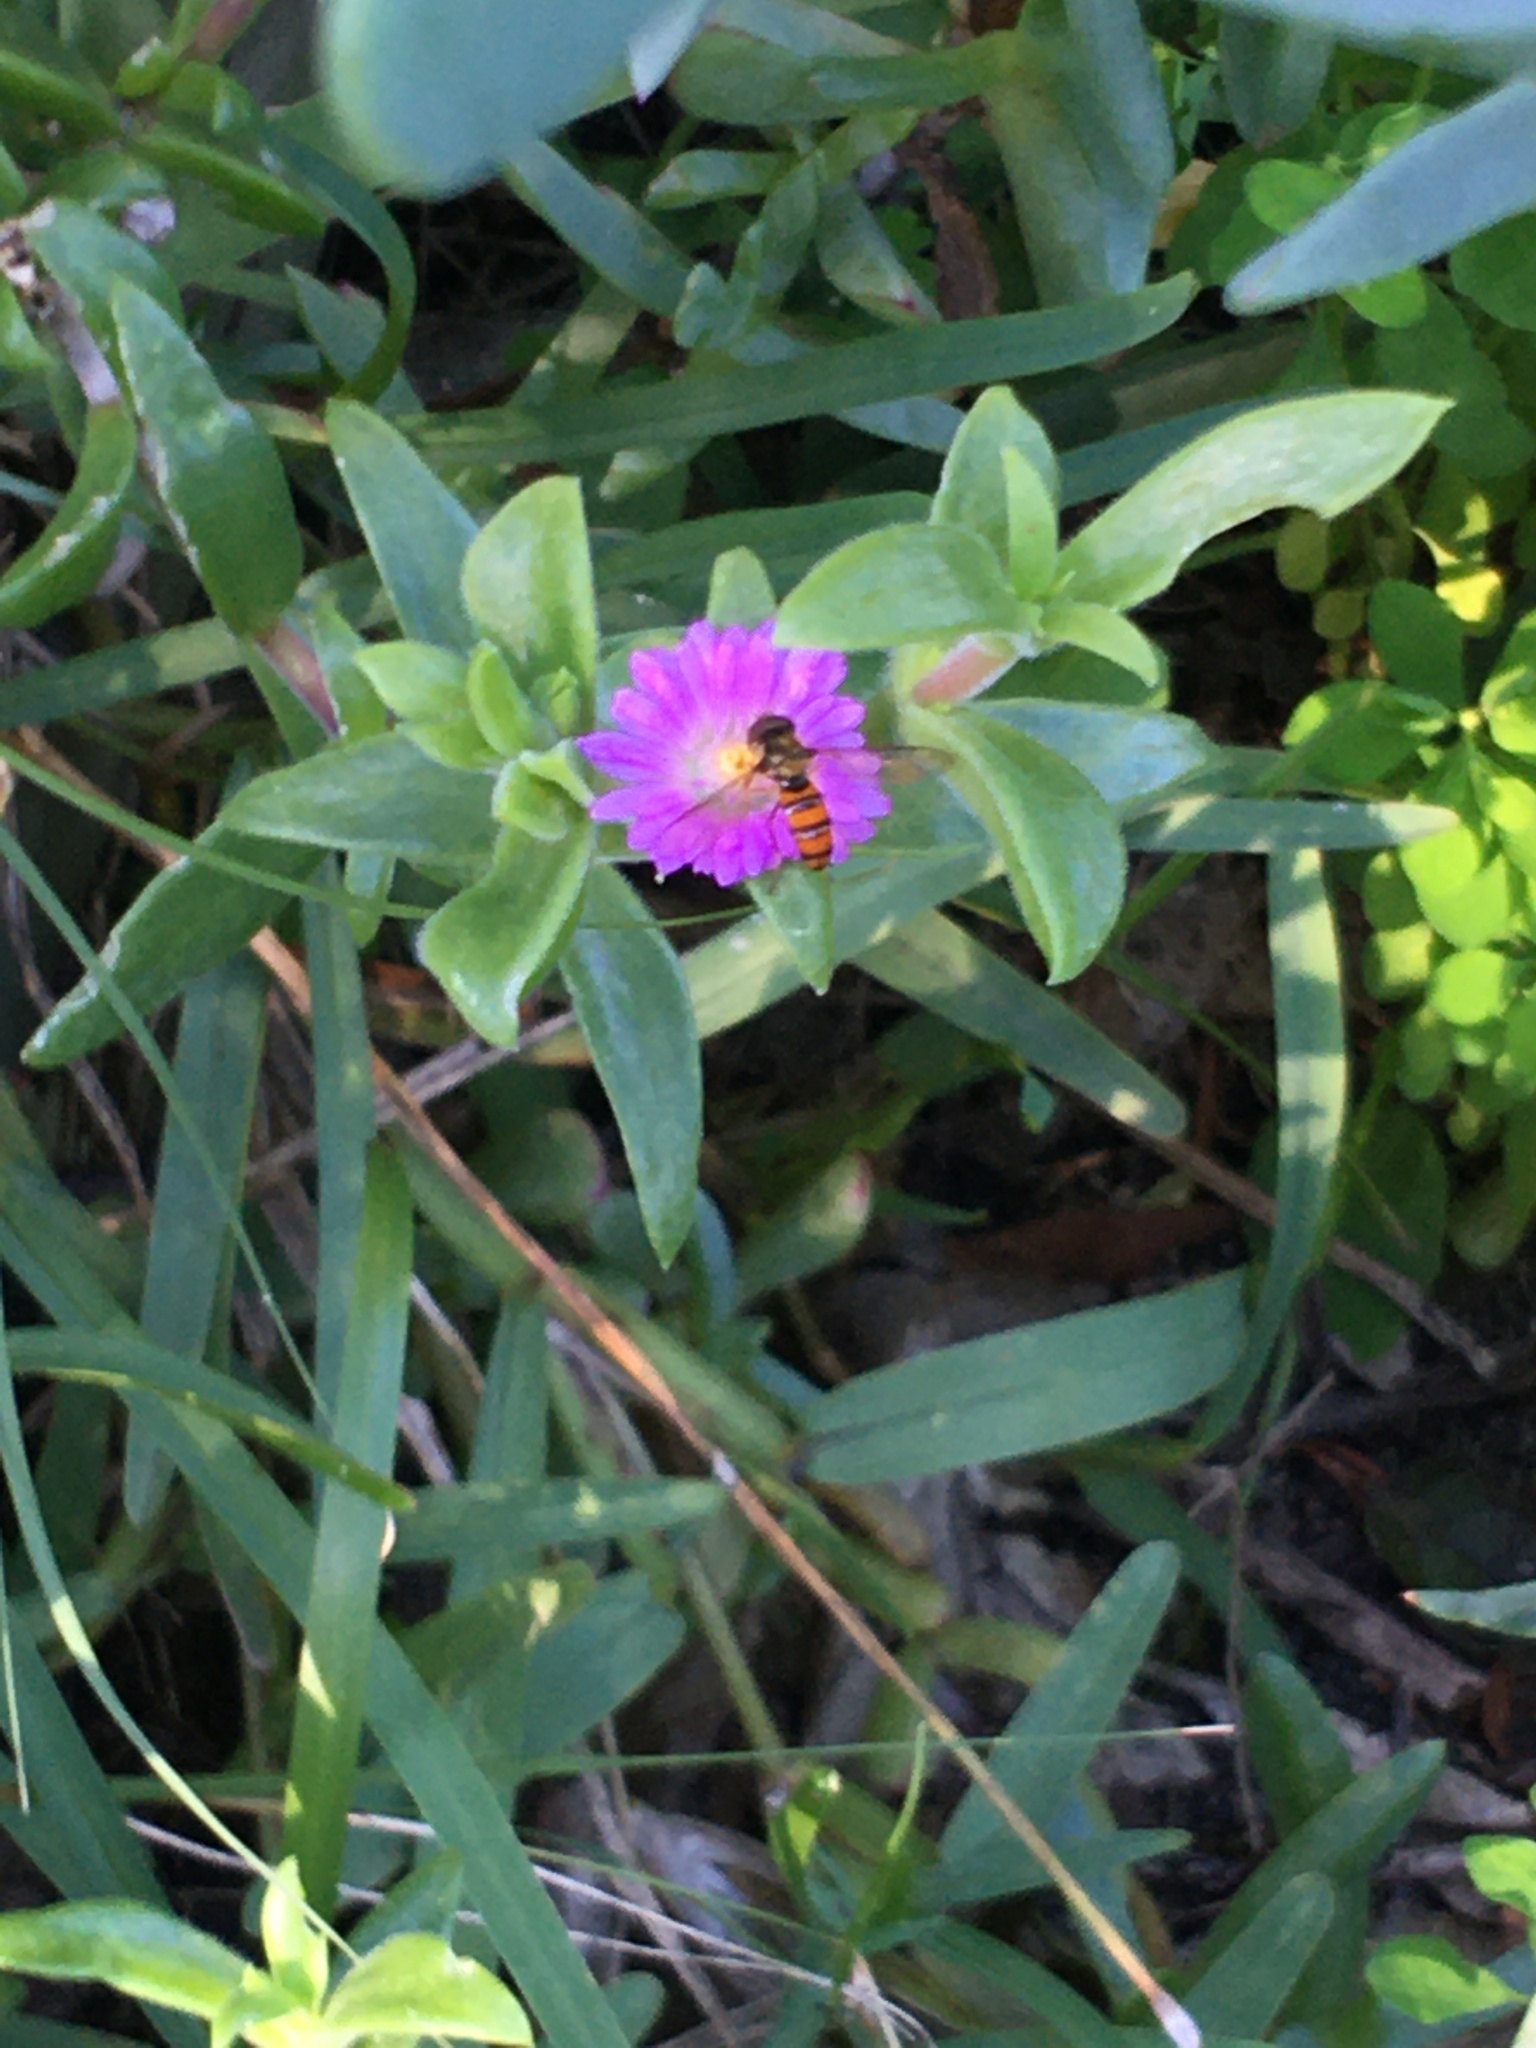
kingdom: Animalia
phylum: Arthropoda
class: Insecta
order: Diptera
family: Syrphidae
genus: Episyrphus
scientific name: Episyrphus trisectus
